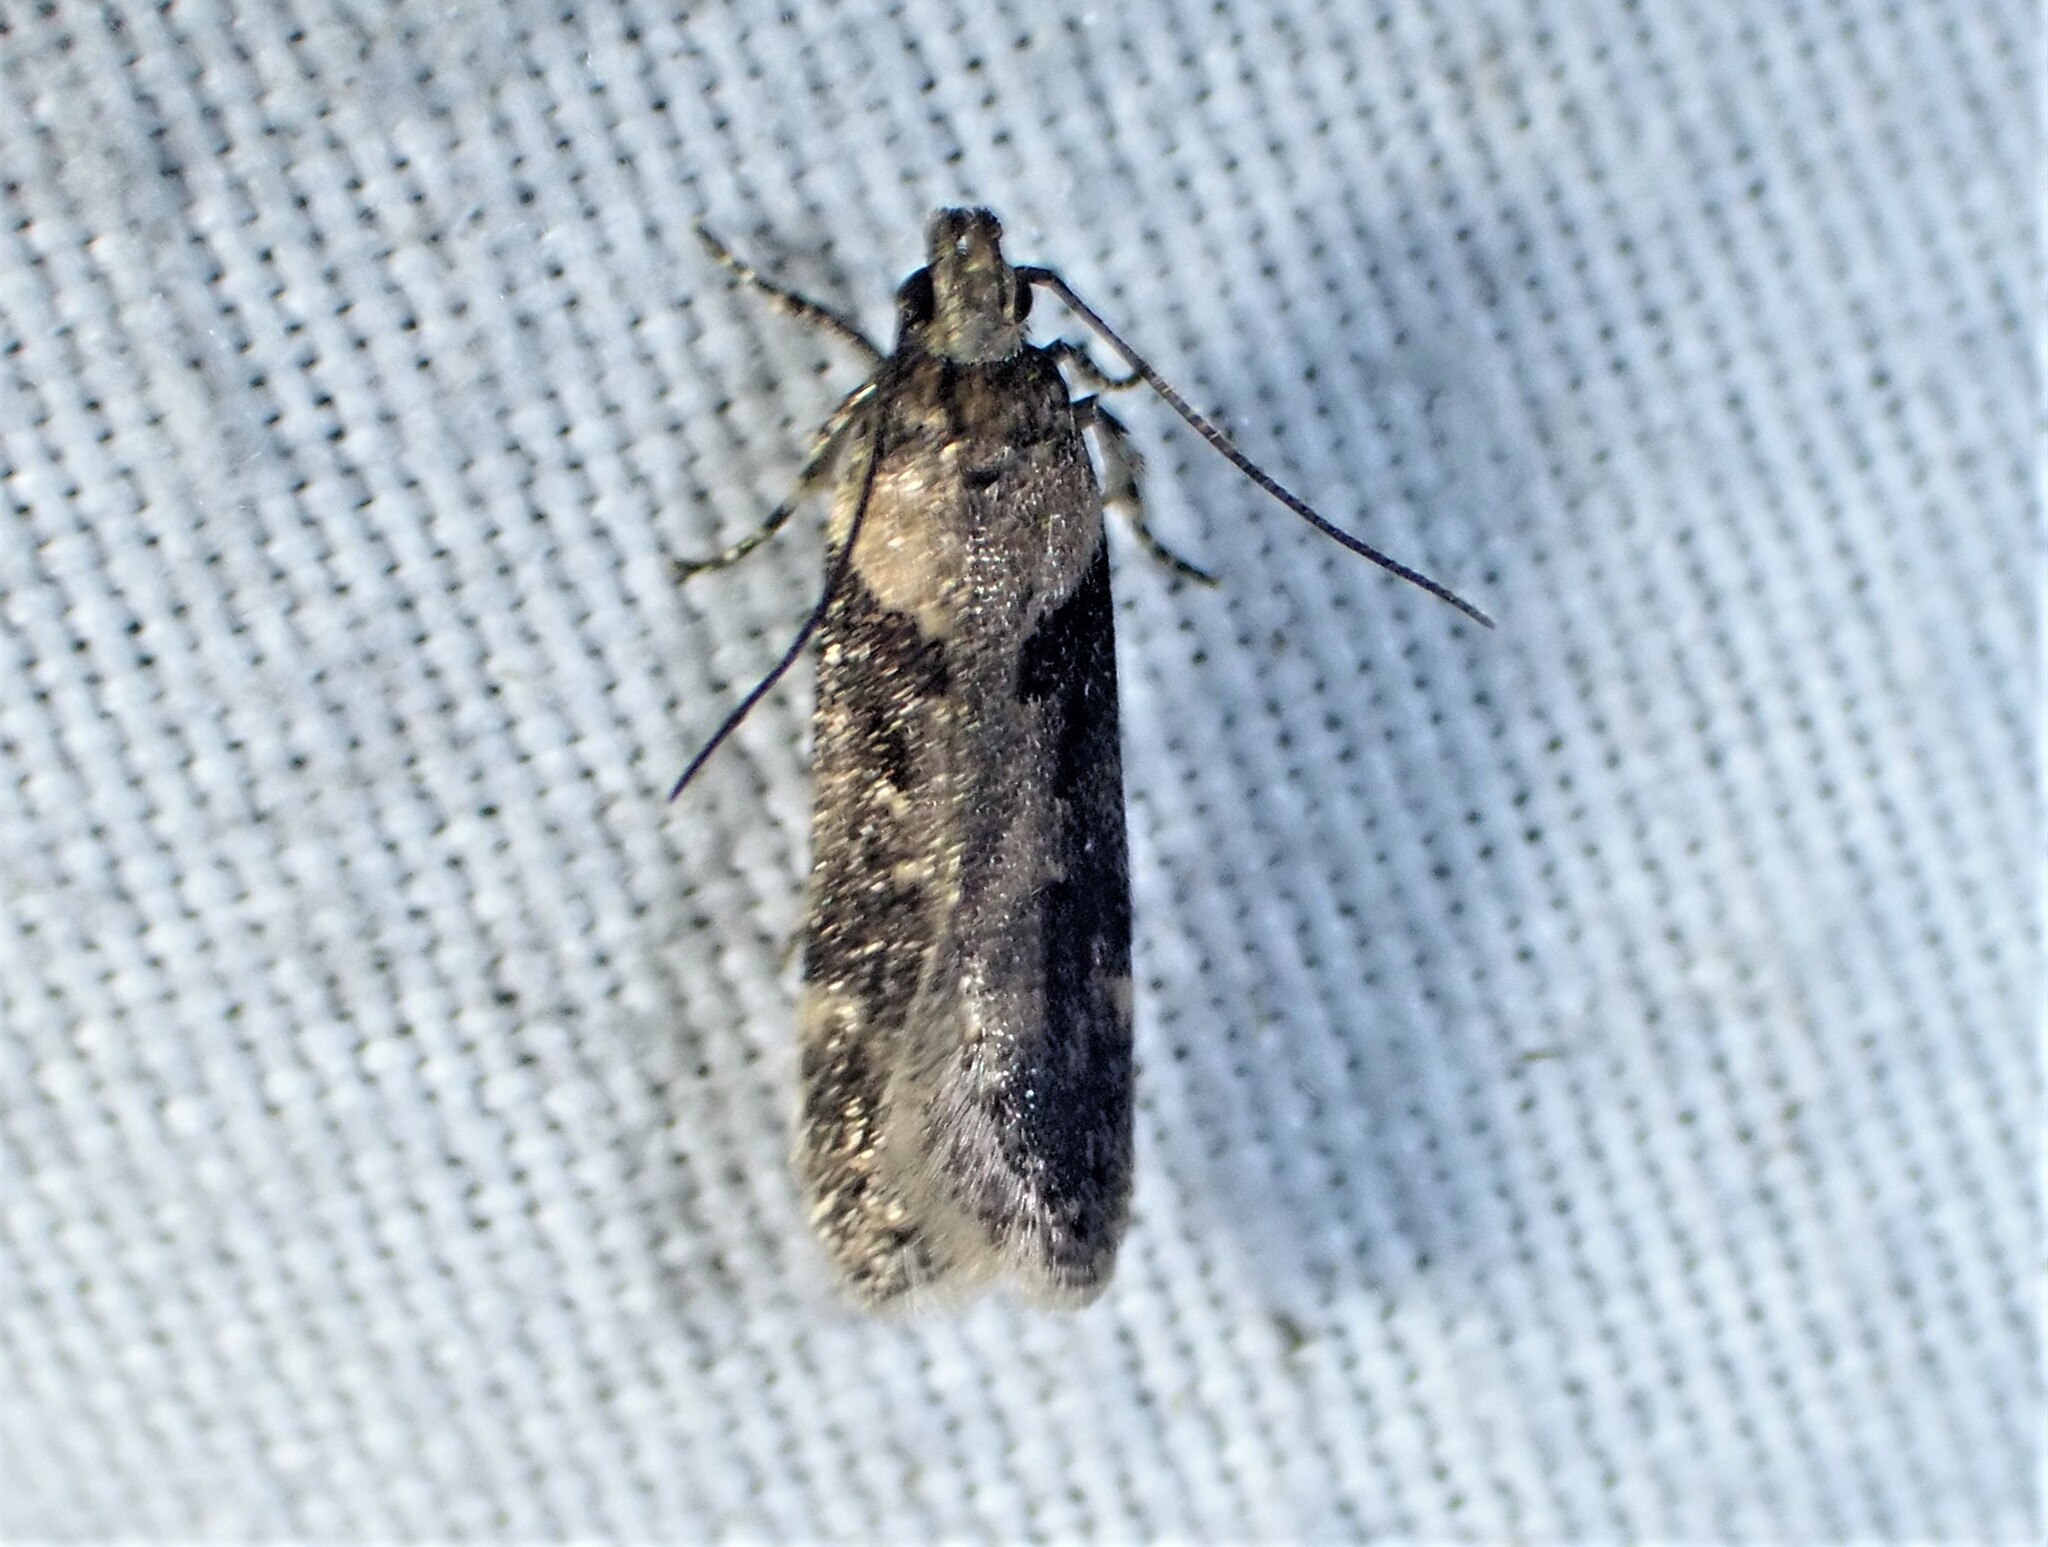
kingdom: Animalia
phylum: Arthropoda
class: Insecta
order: Lepidoptera
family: Gelechiidae
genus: Chionodes
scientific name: Chionodes mediofuscella
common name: Black-smudged chionodes moth
